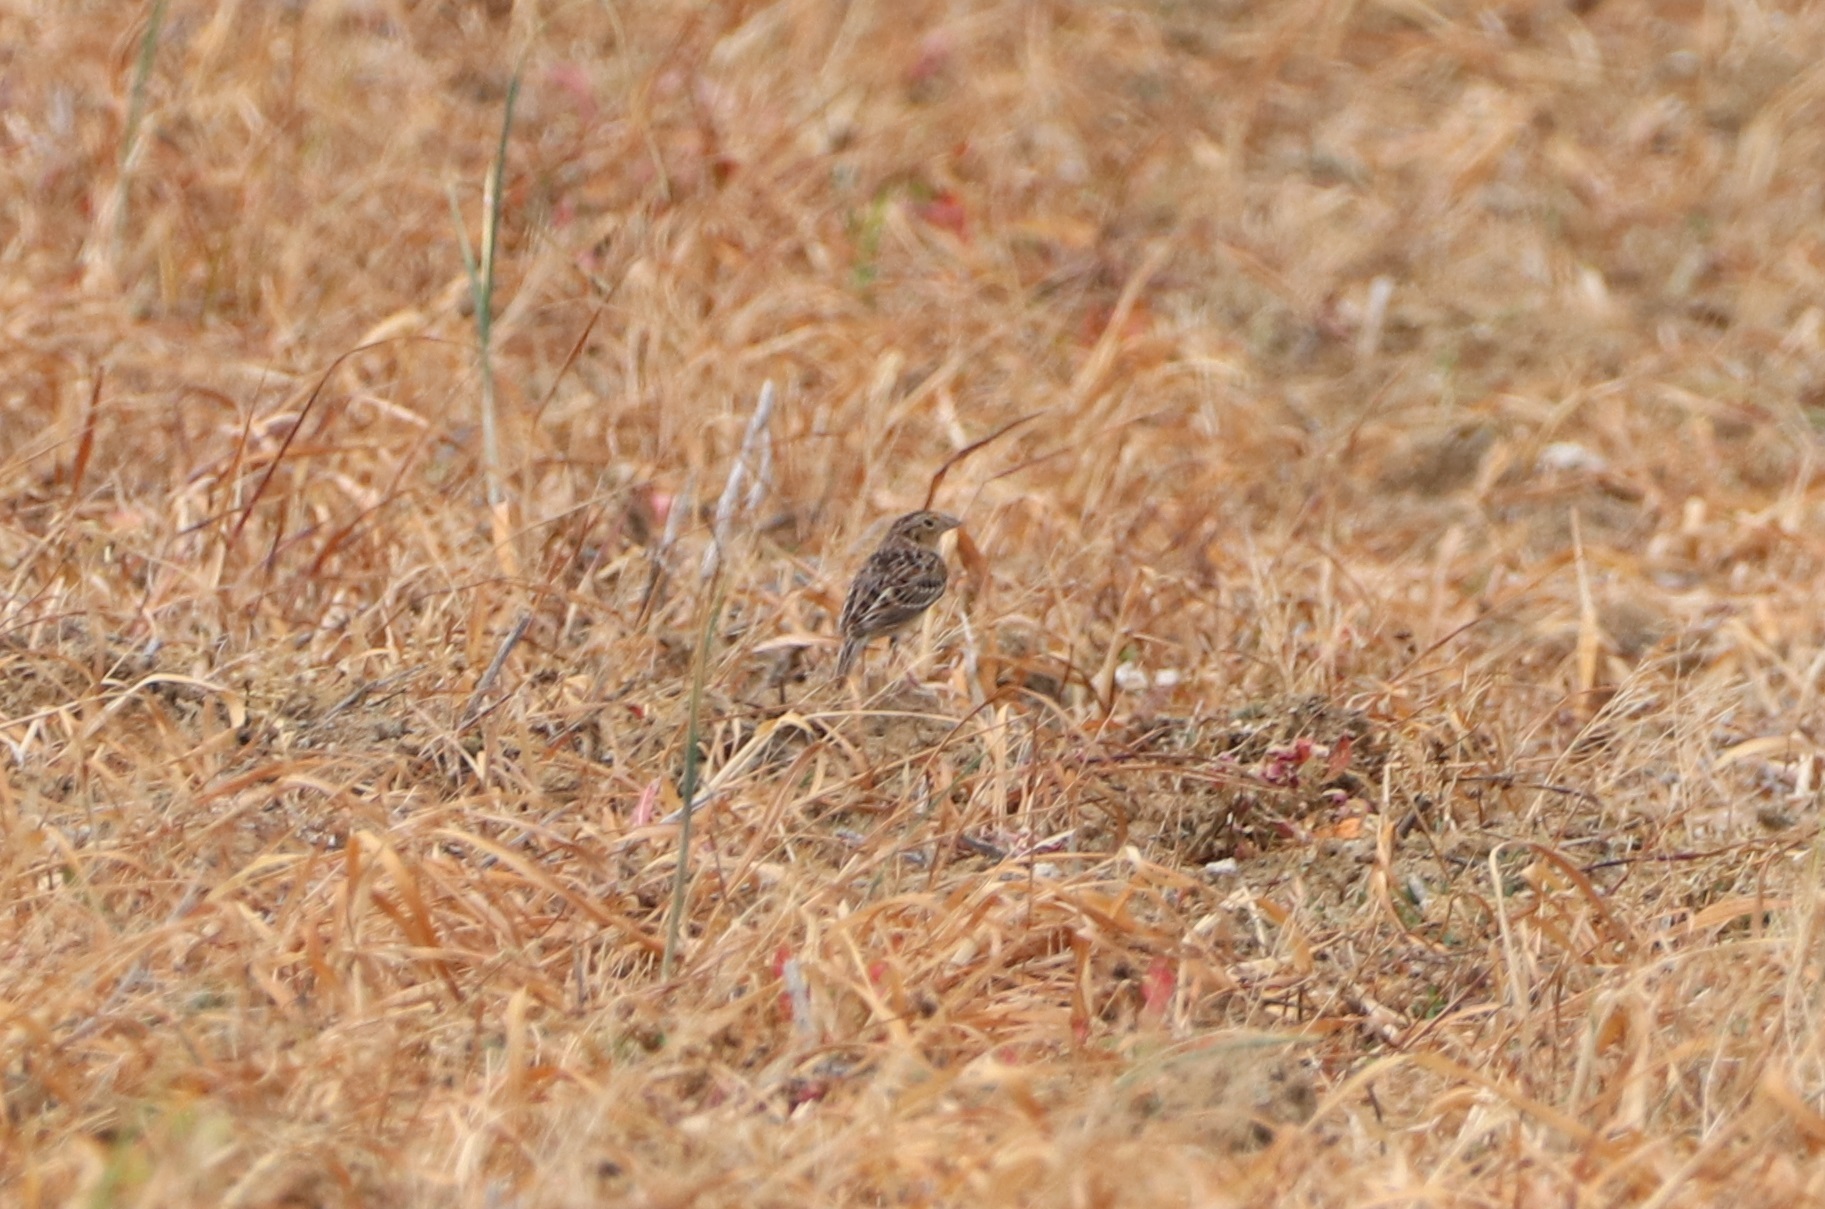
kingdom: Animalia
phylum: Chordata
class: Aves
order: Passeriformes
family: Passerellidae
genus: Ammodramus
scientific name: Ammodramus savannarum
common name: Grasshopper sparrow
